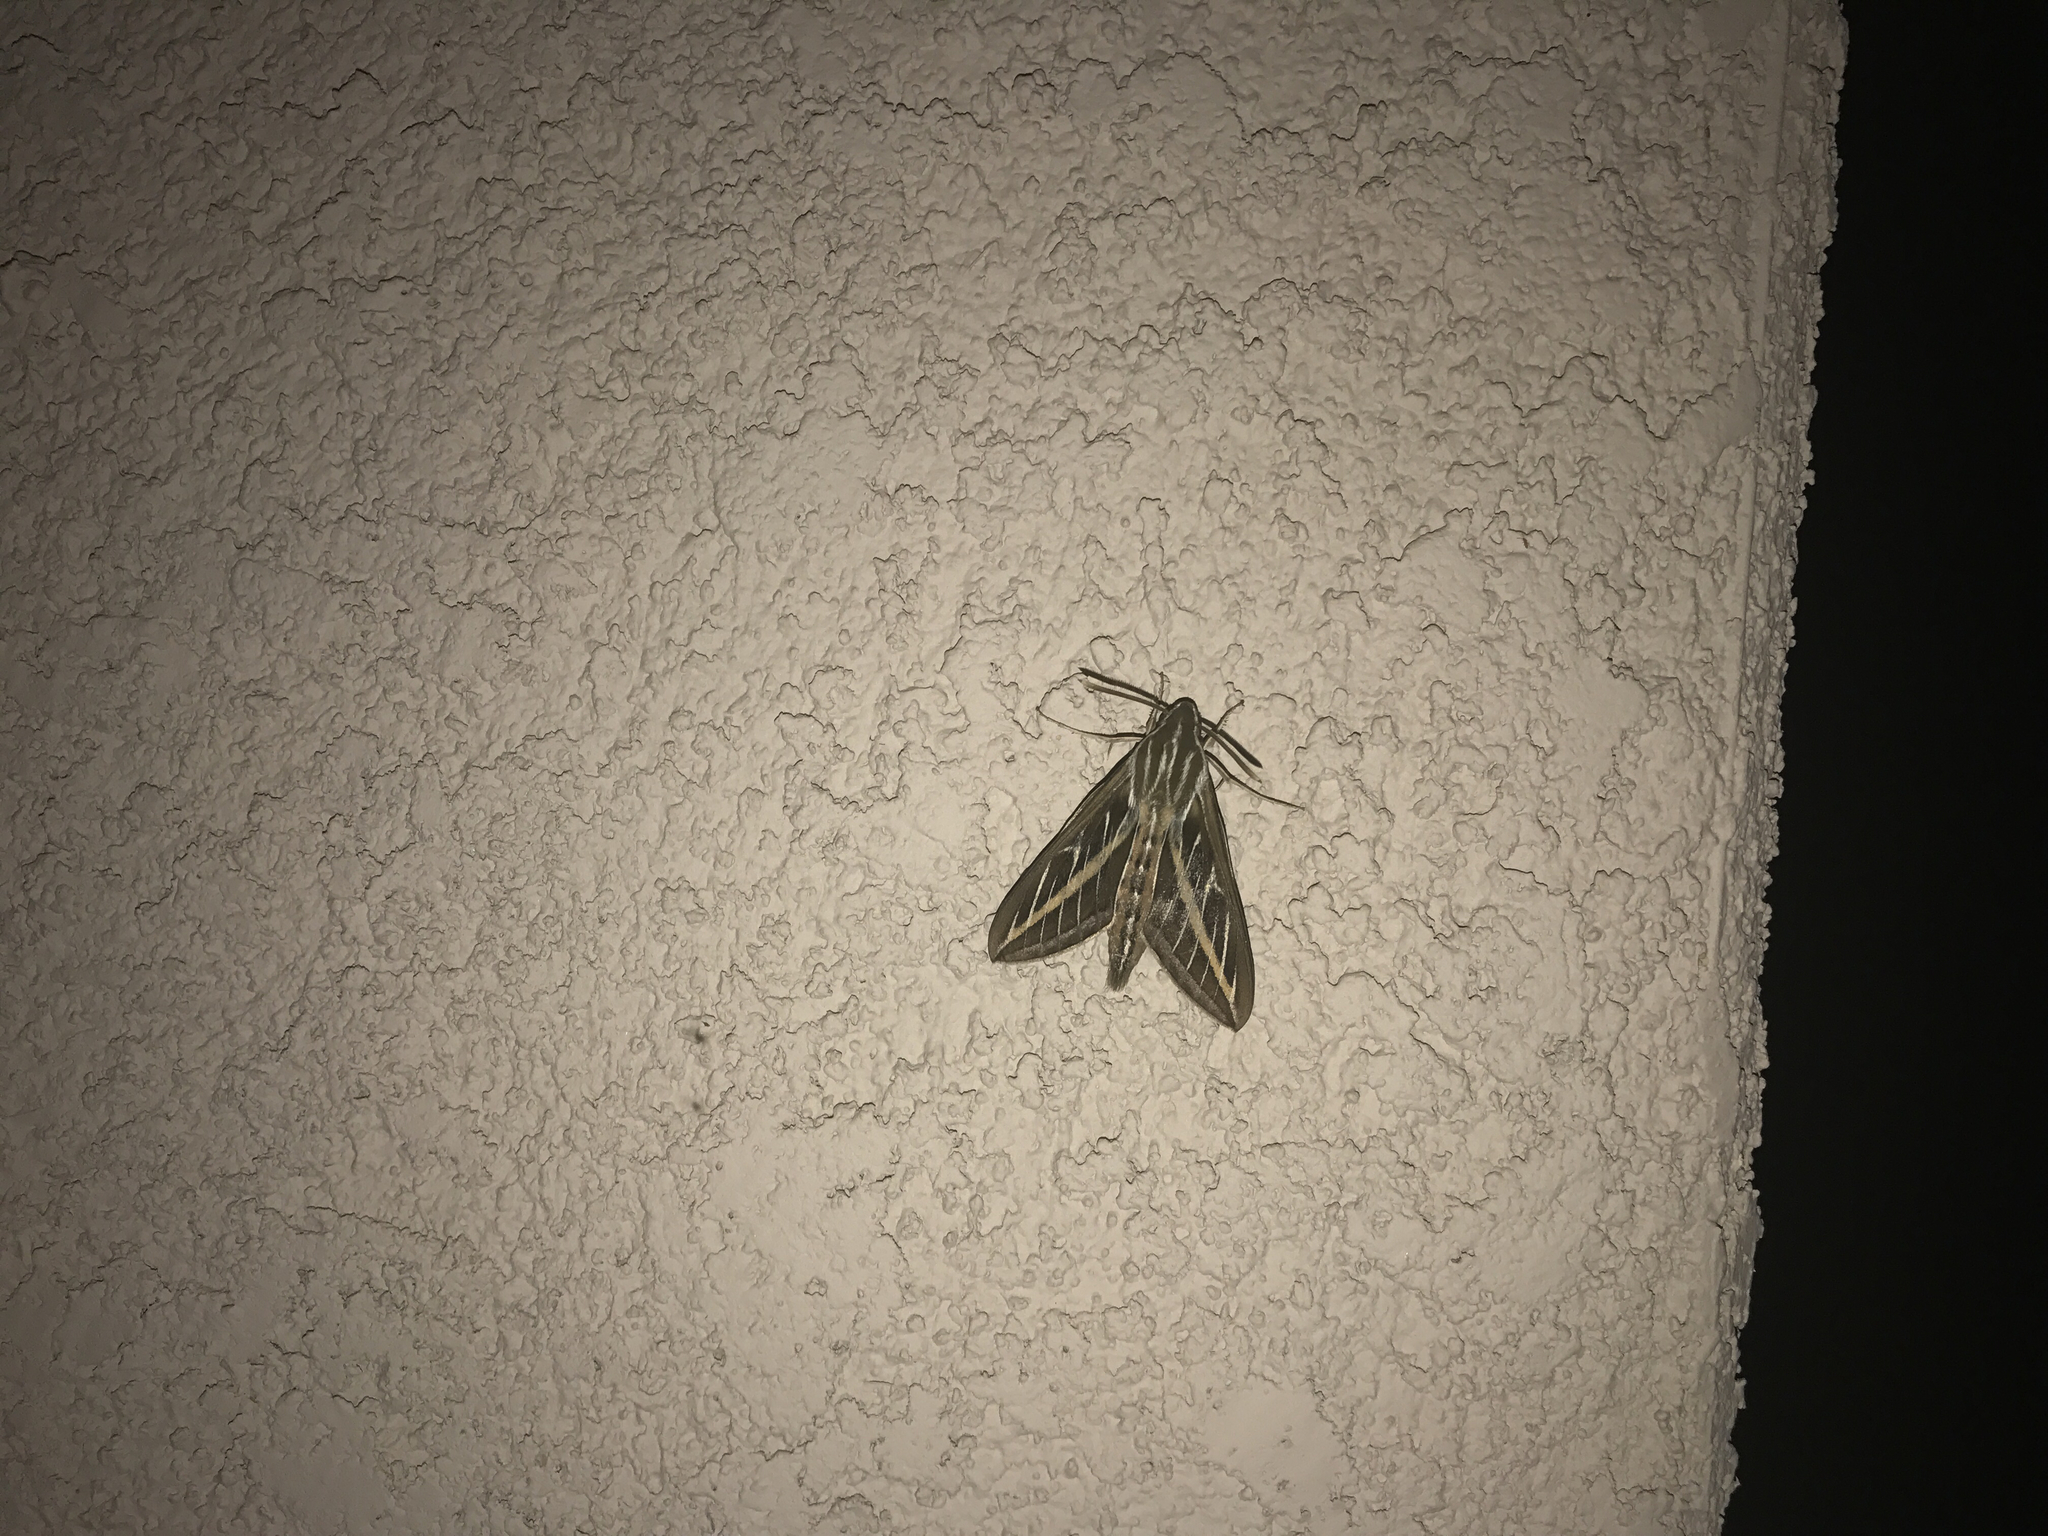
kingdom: Animalia
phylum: Arthropoda
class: Insecta
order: Lepidoptera
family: Sphingidae
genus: Hyles
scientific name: Hyles lineata
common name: White-lined sphinx
